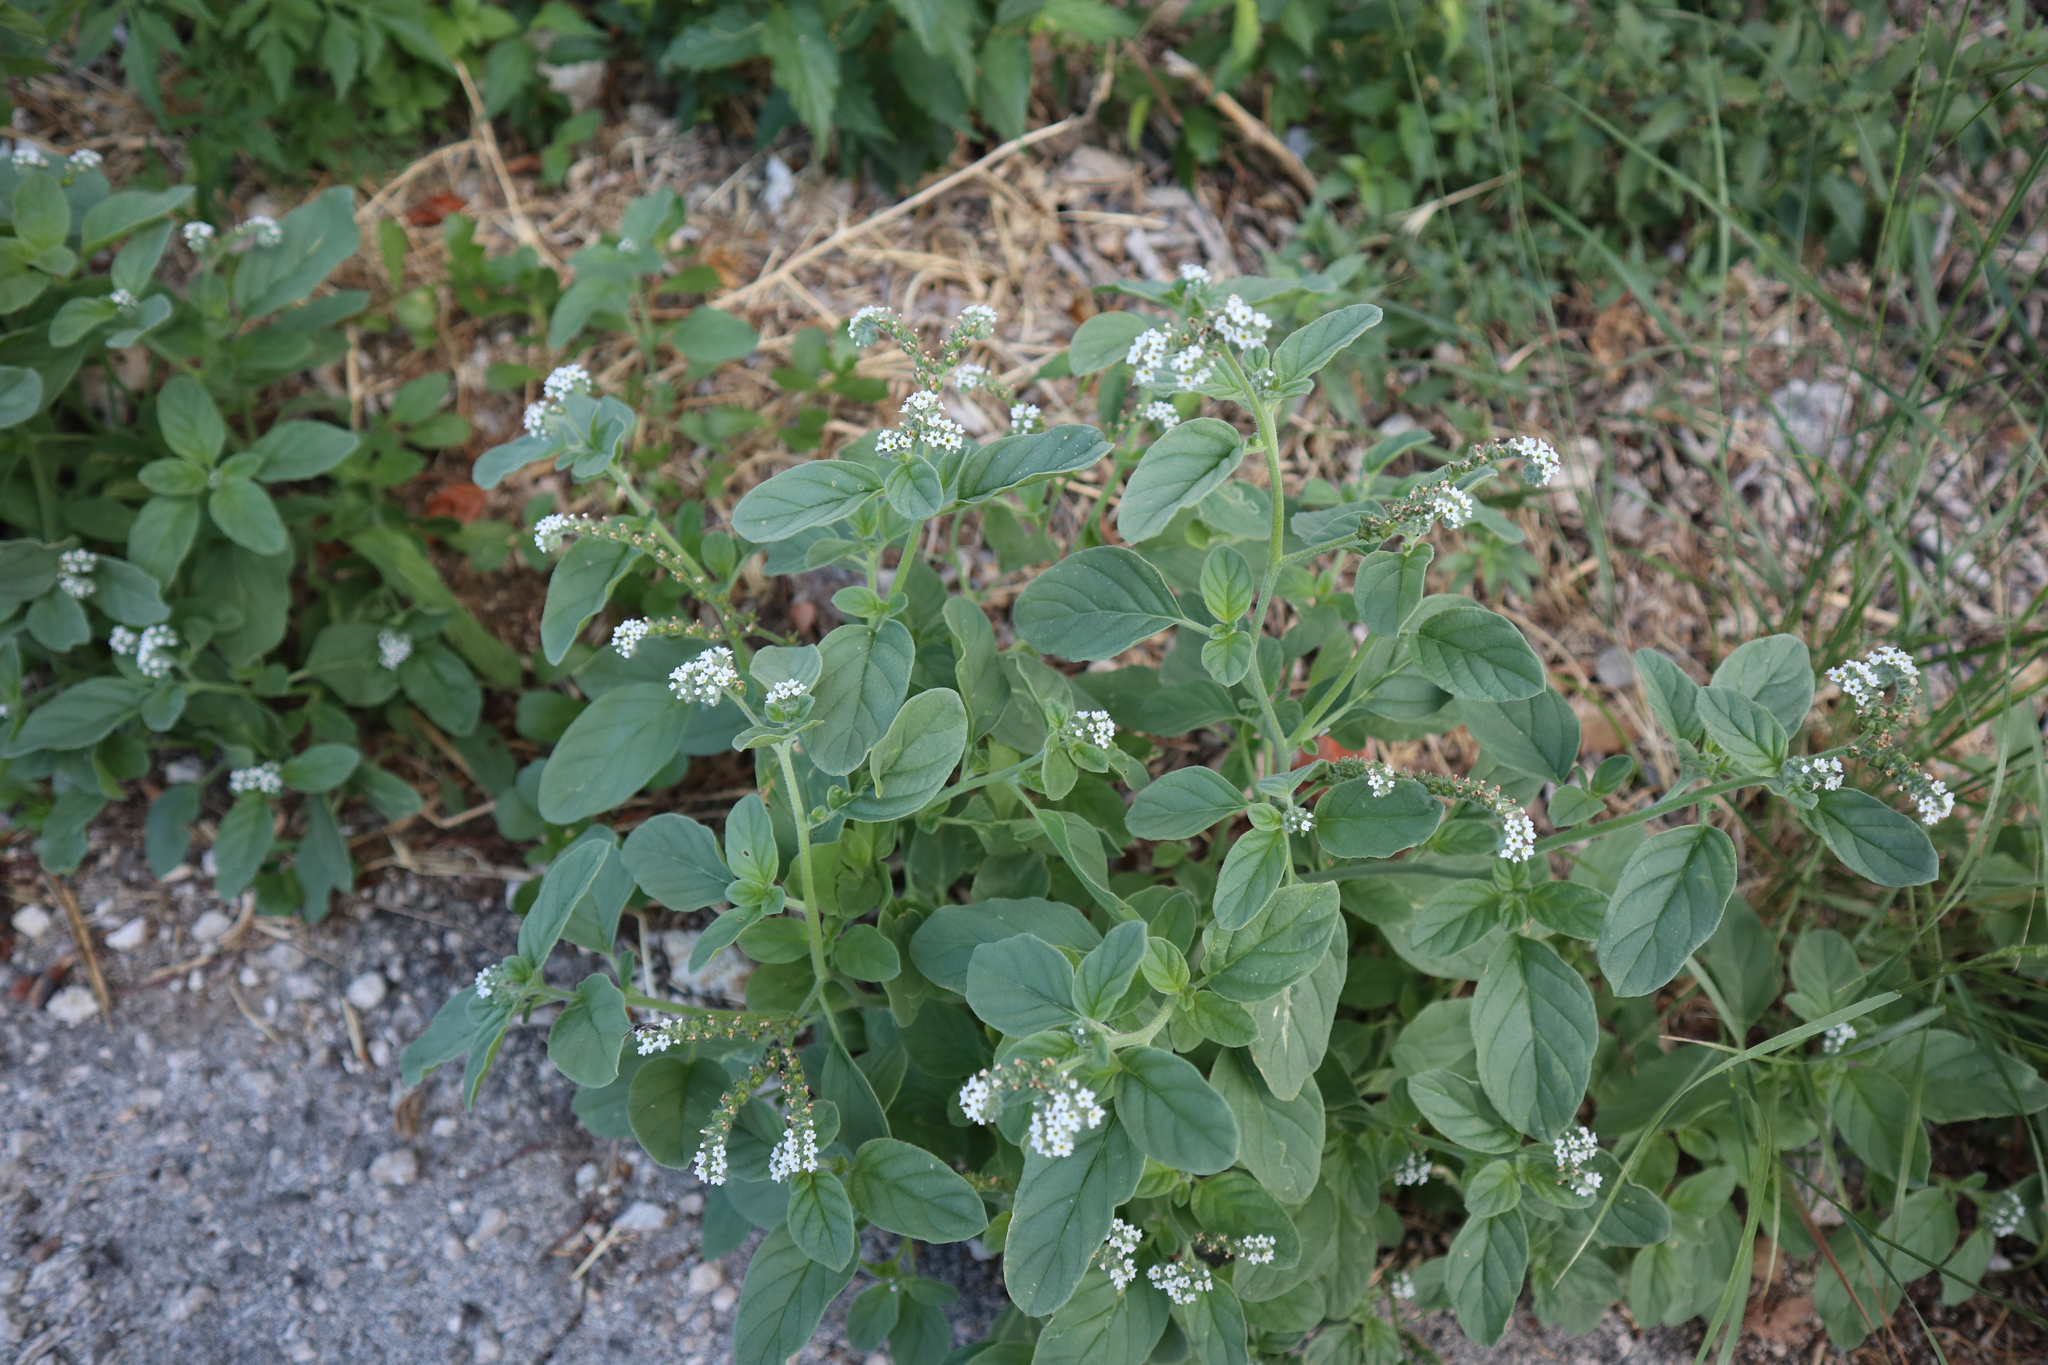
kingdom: Plantae
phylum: Tracheophyta
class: Magnoliopsida
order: Boraginales
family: Heliotropiaceae
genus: Heliotropium
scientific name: Heliotropium europaeum
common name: European heliotrope
